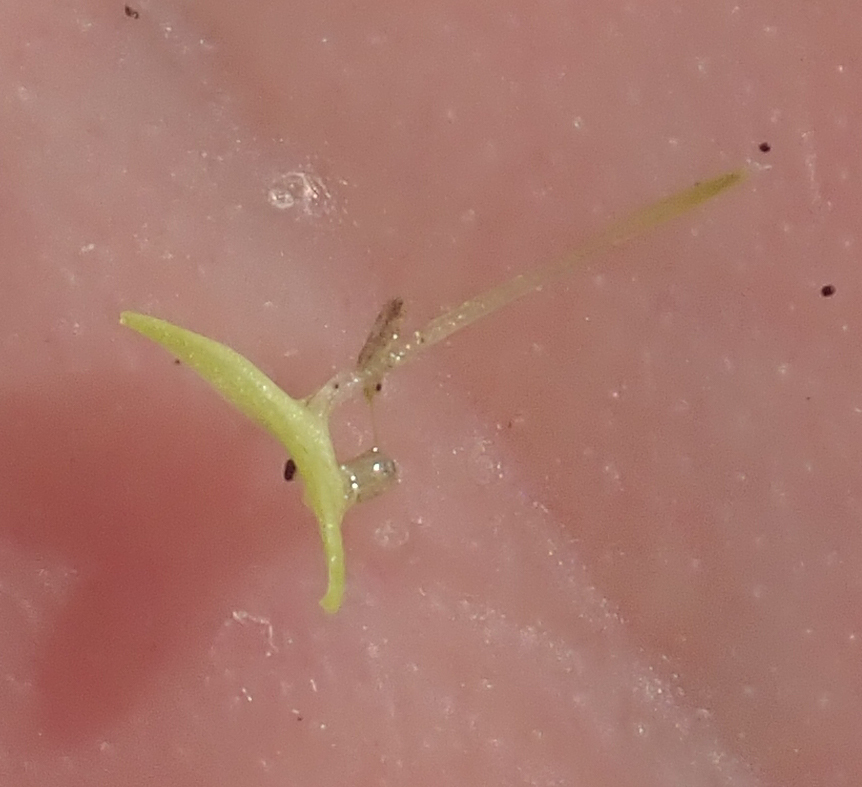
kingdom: Plantae
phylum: Tracheophyta
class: Liliopsida
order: Alismatales
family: Araceae
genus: Lemna
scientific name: Lemna aequinoctialis
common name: Duckweed
